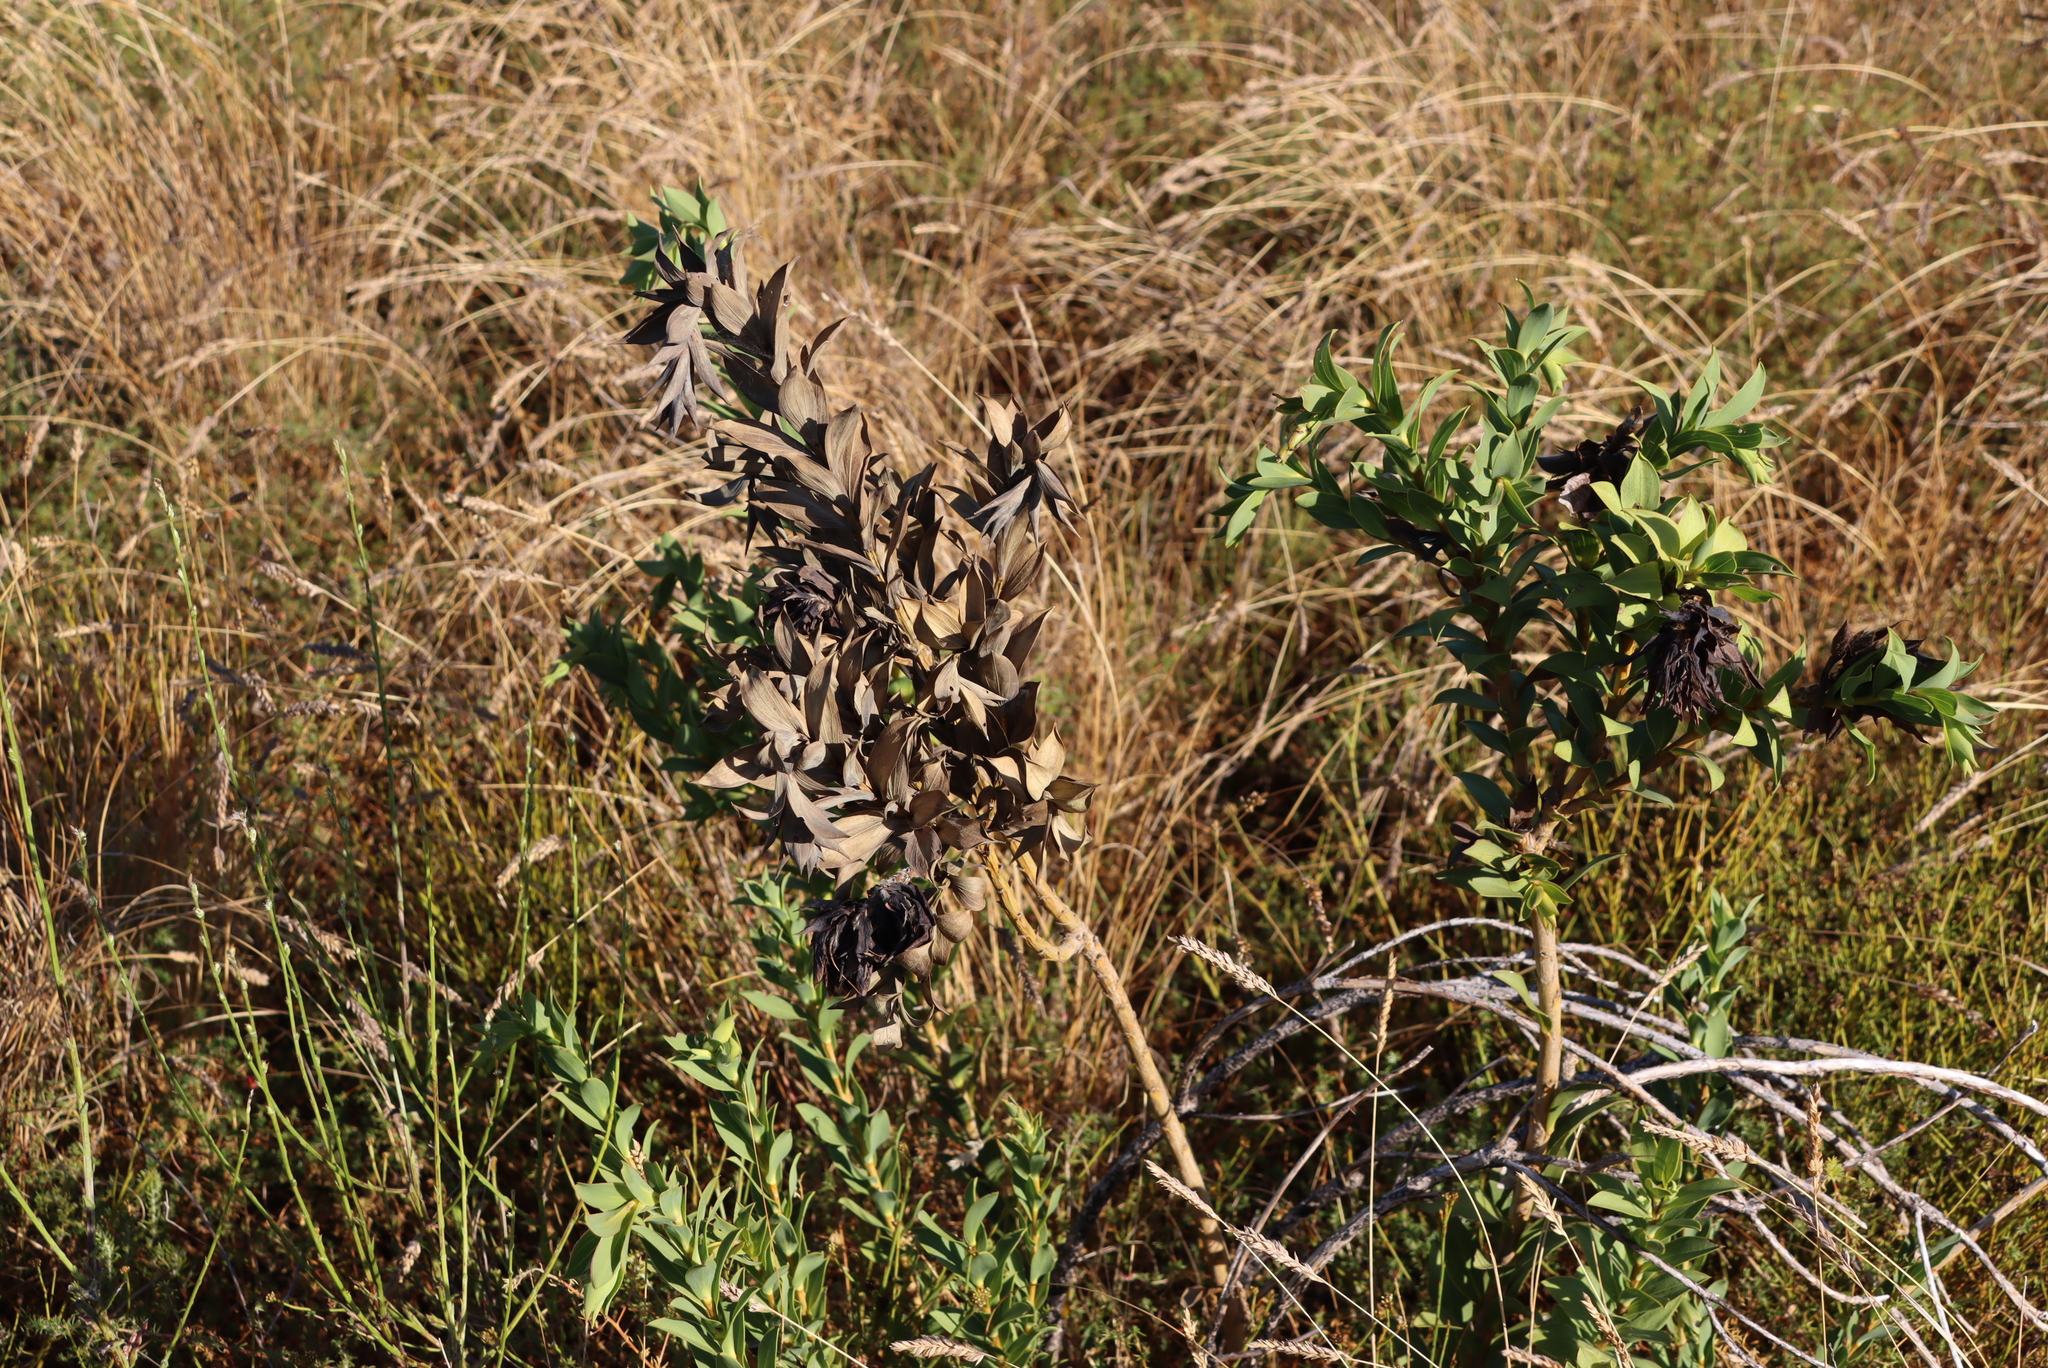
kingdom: Plantae
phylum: Tracheophyta
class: Magnoliopsida
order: Fabales
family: Fabaceae
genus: Liparia
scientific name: Liparia splendens
